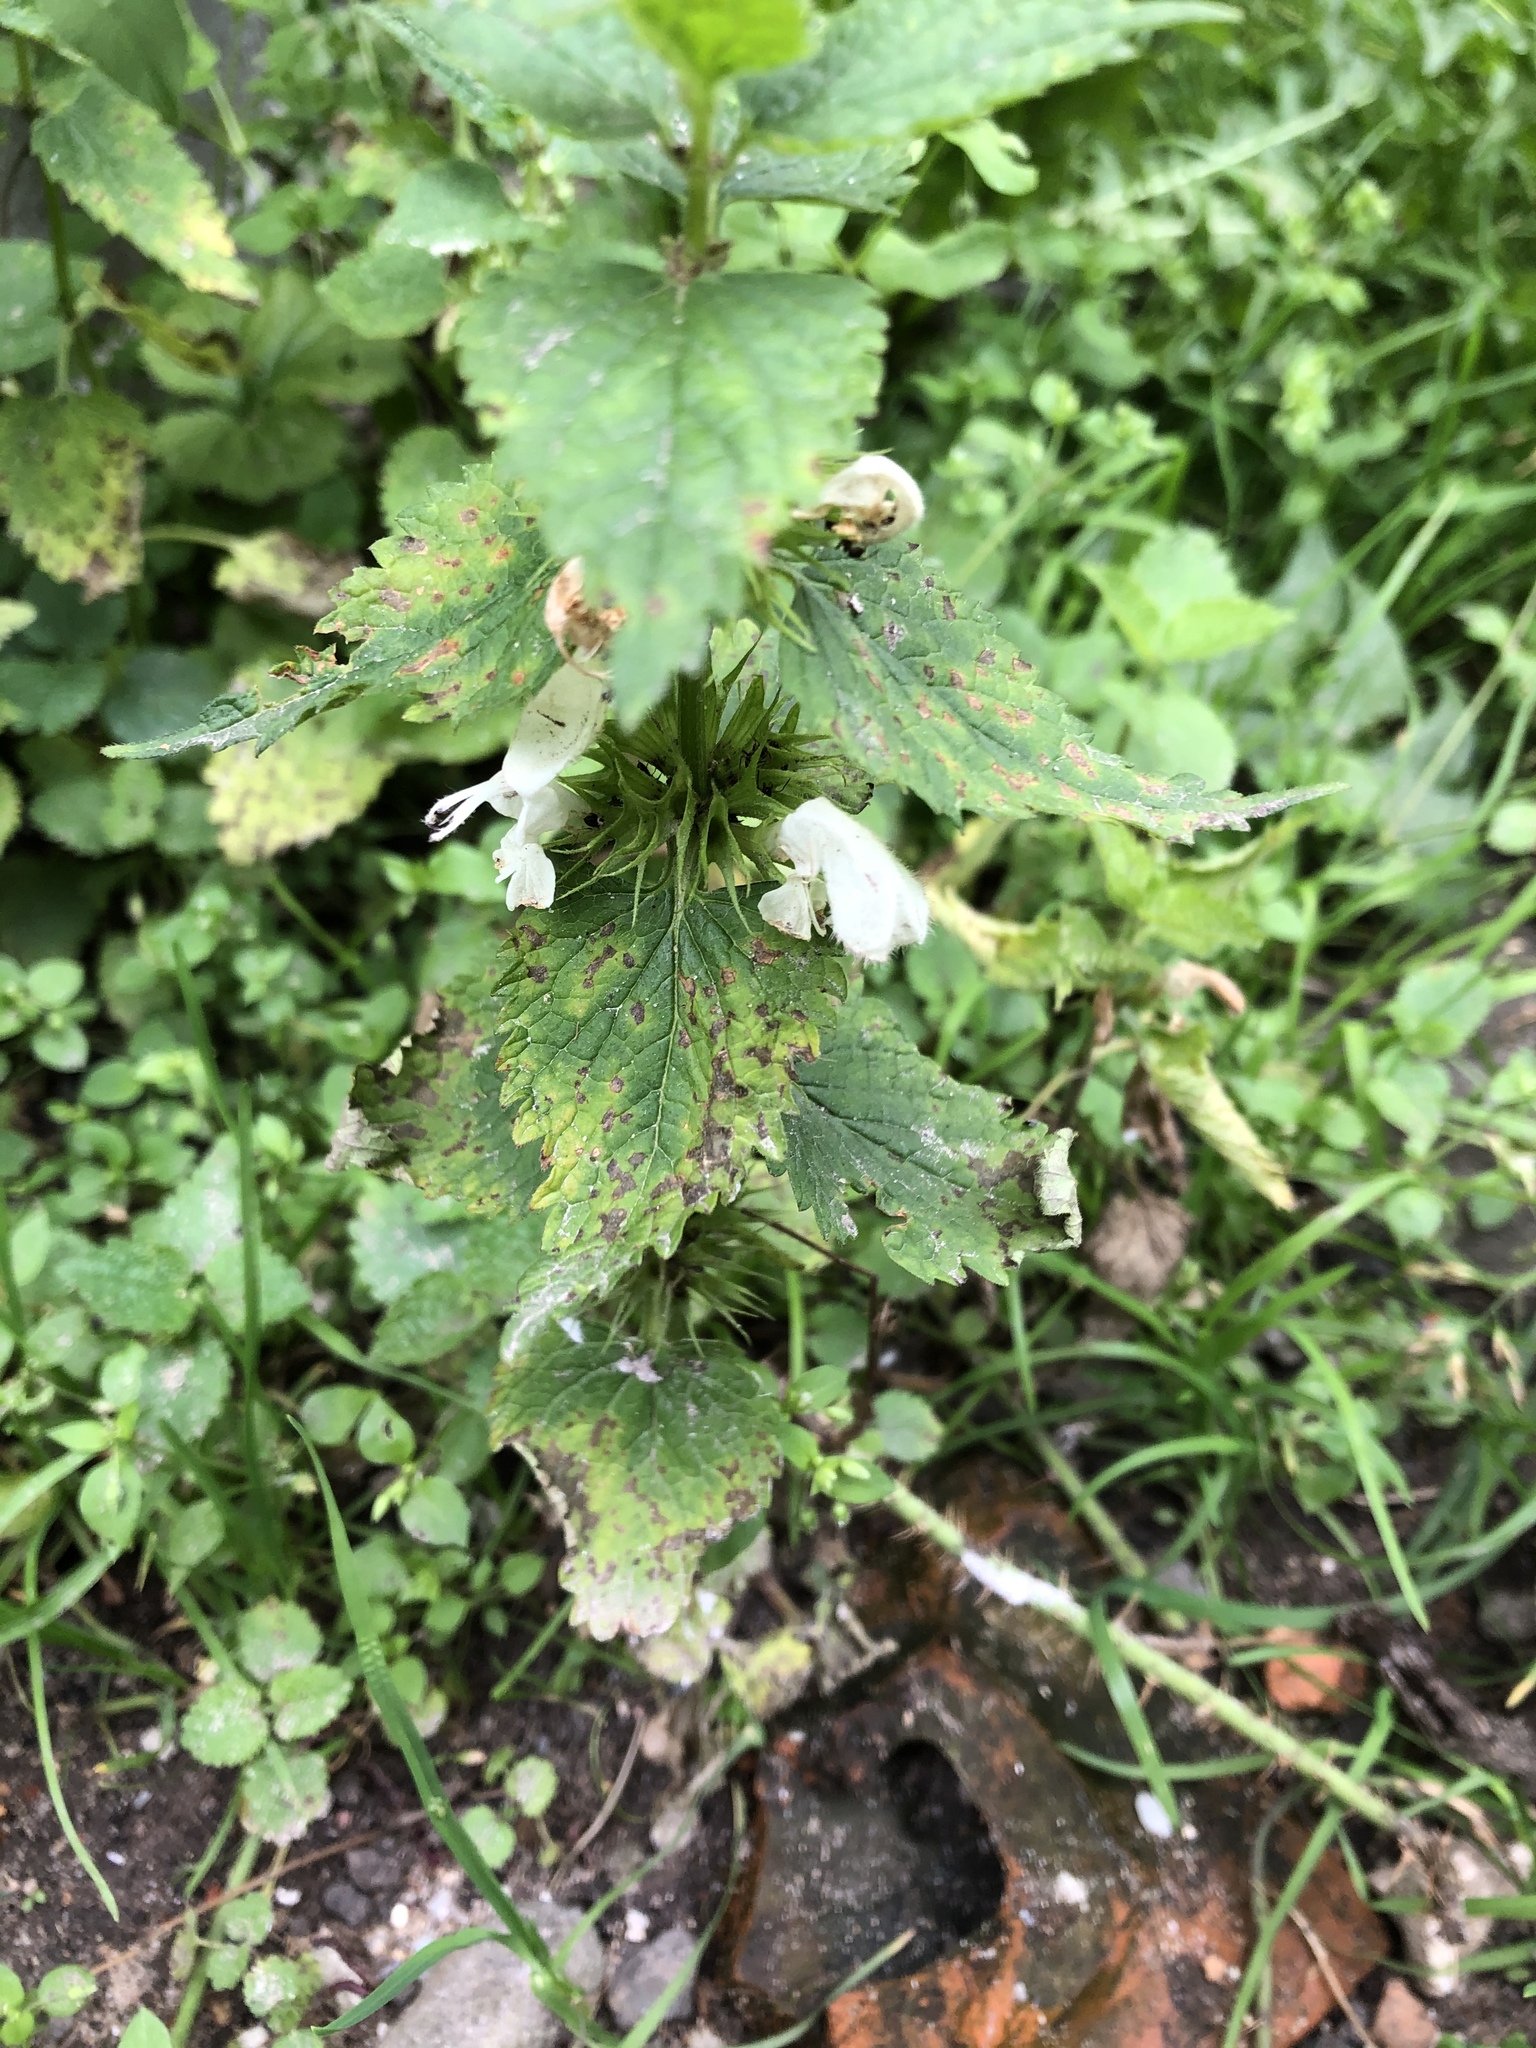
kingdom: Plantae
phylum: Tracheophyta
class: Magnoliopsida
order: Lamiales
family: Lamiaceae
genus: Lamium
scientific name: Lamium album
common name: White dead-nettle
